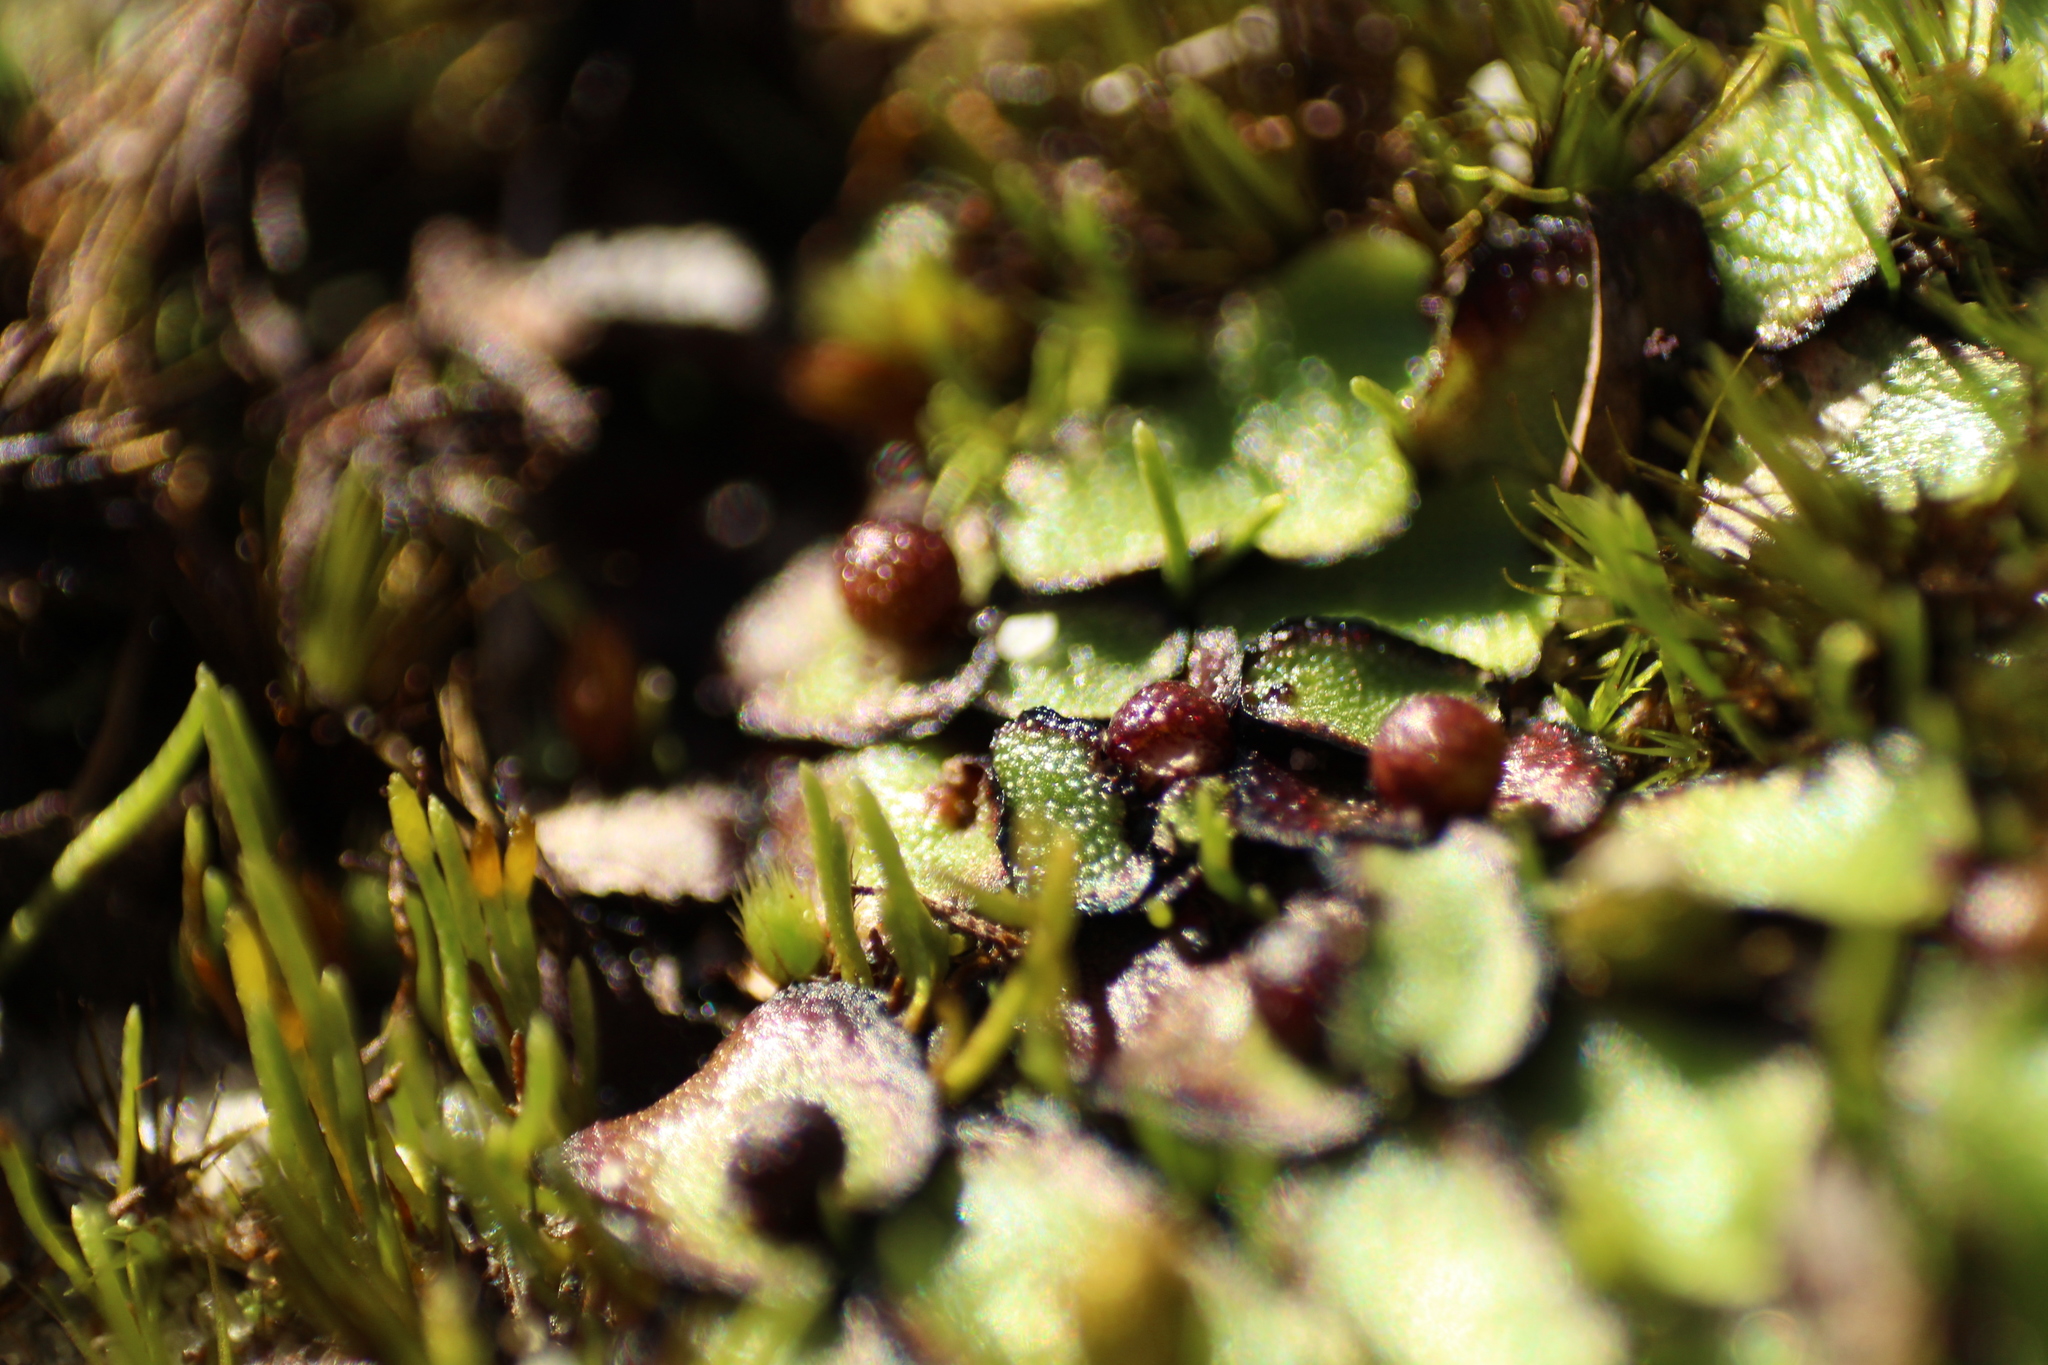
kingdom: Plantae
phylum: Marchantiophyta
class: Marchantiopsida
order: Marchantiales
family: Aytoniaceae
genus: Asterella
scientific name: Asterella drummondii
